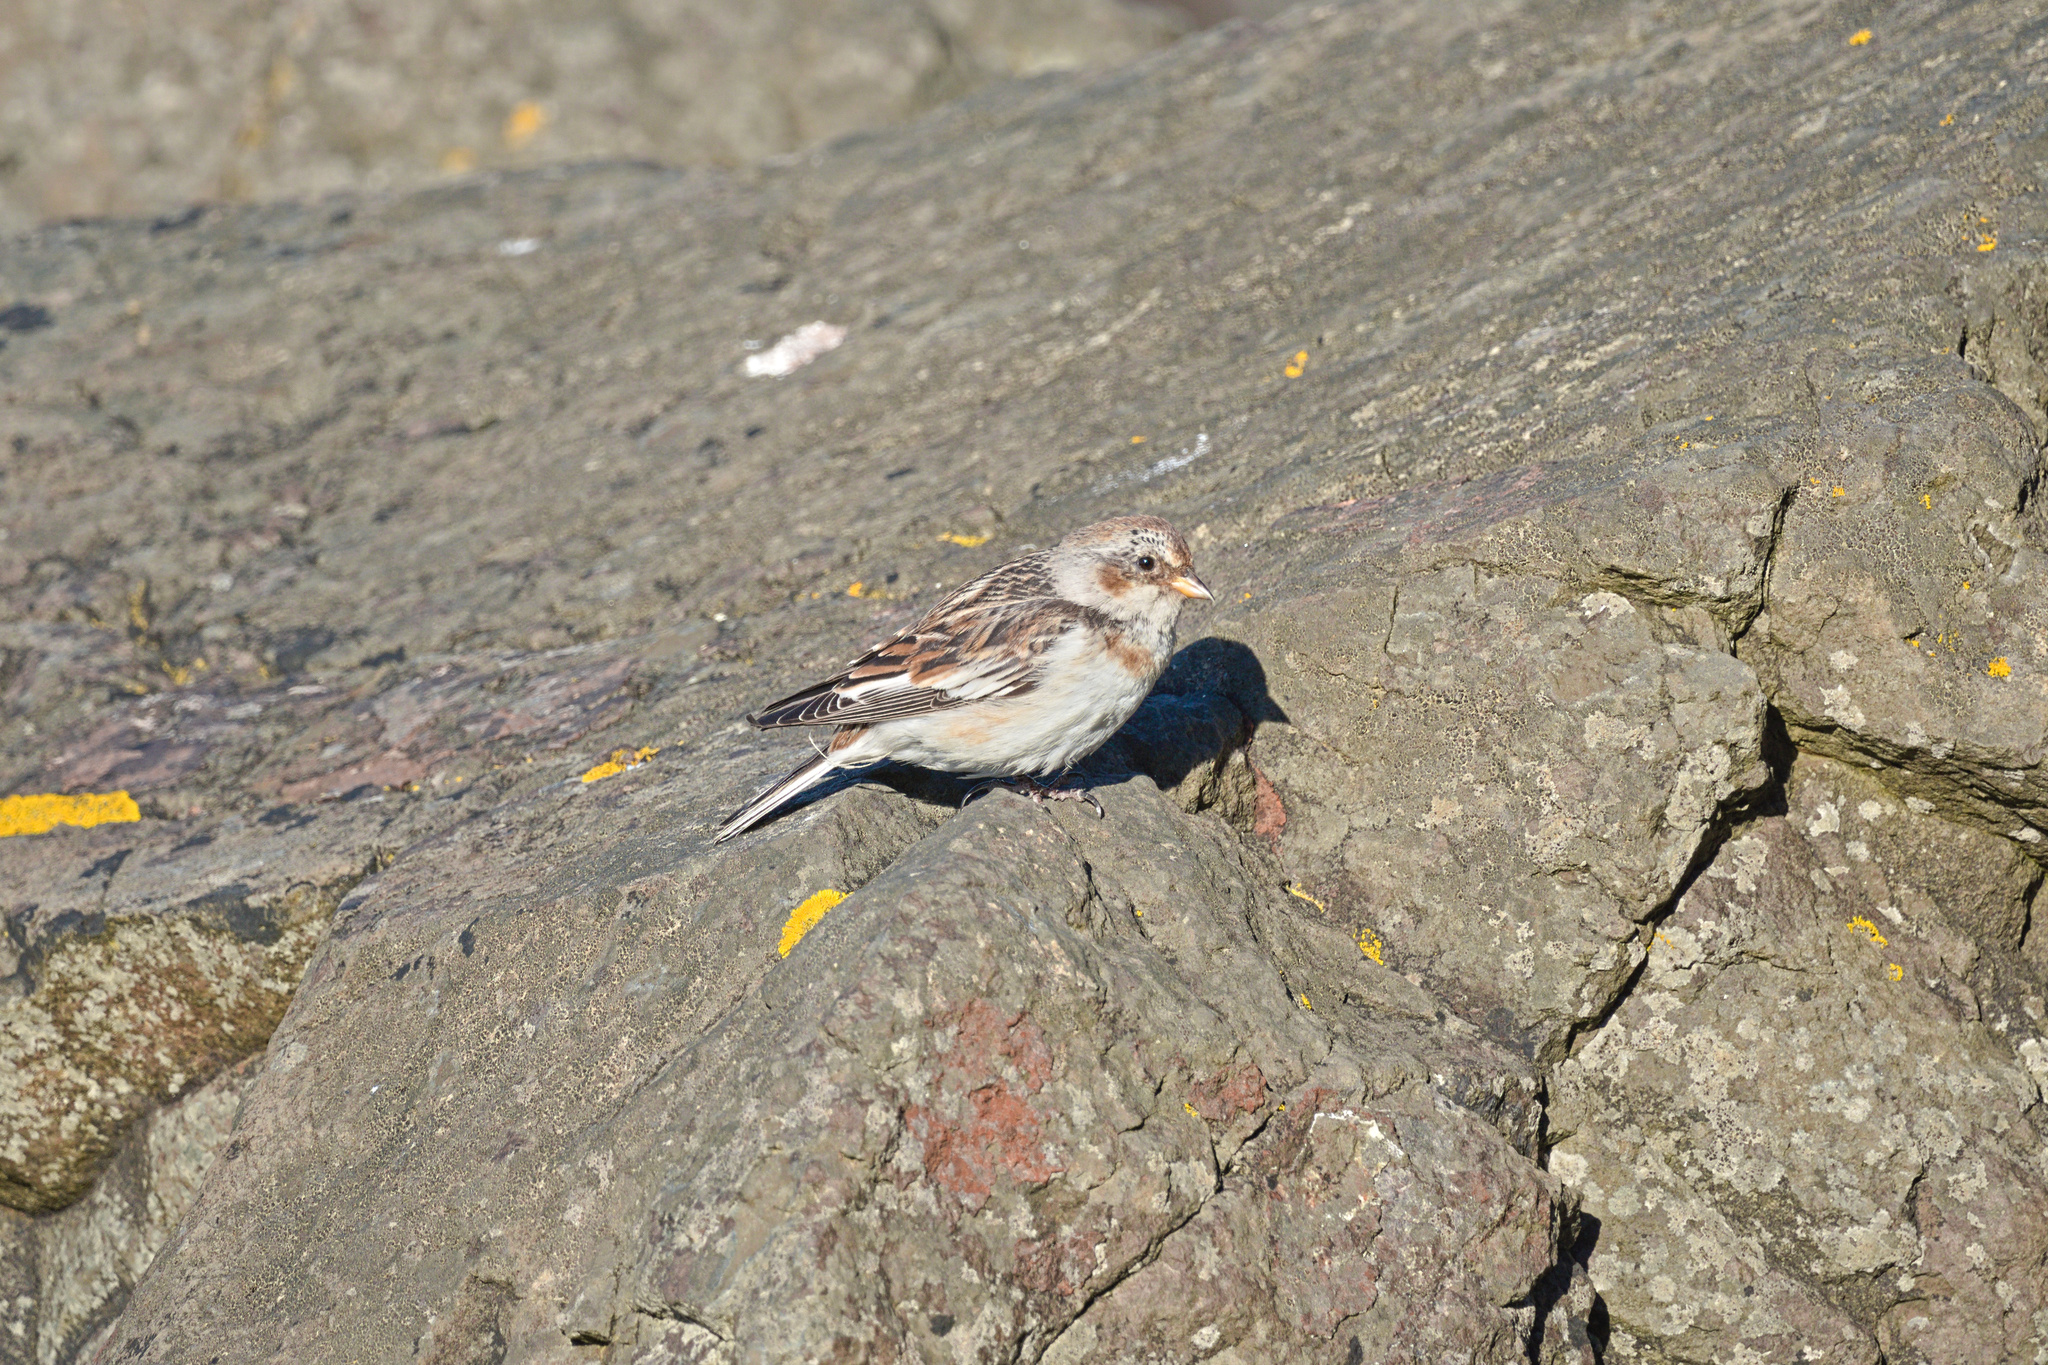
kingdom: Animalia
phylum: Chordata
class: Aves
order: Passeriformes
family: Calcariidae
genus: Plectrophenax
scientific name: Plectrophenax nivalis
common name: Snow bunting
